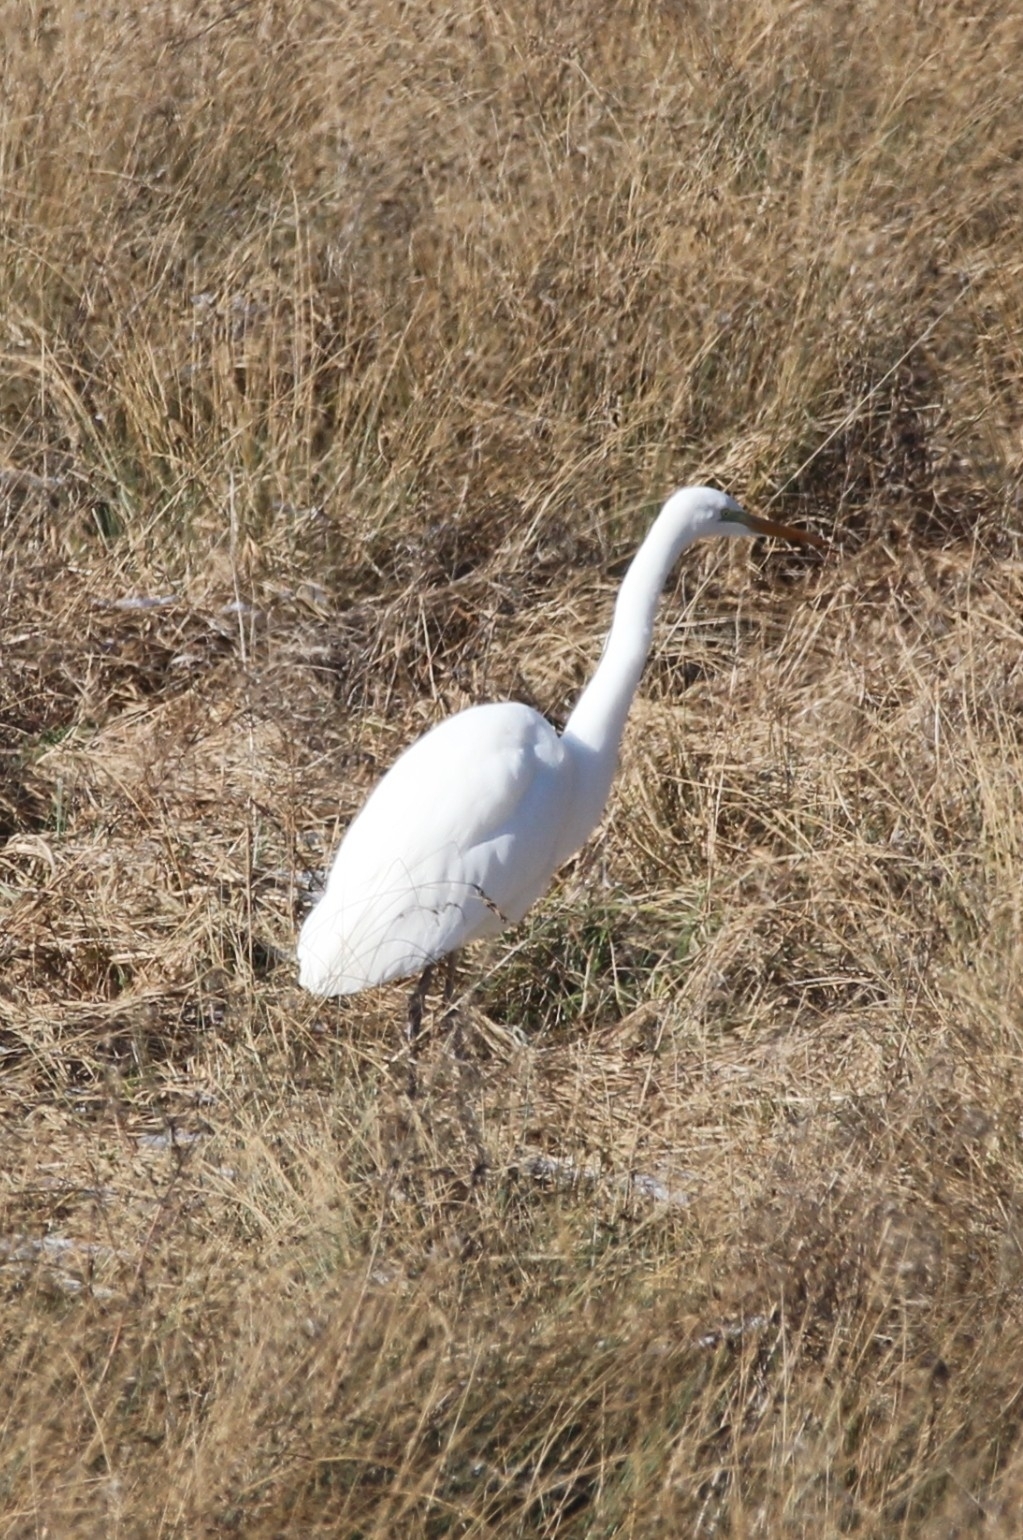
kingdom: Animalia
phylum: Chordata
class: Aves
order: Pelecaniformes
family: Ardeidae
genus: Ardea
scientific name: Ardea alba
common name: Great egret
